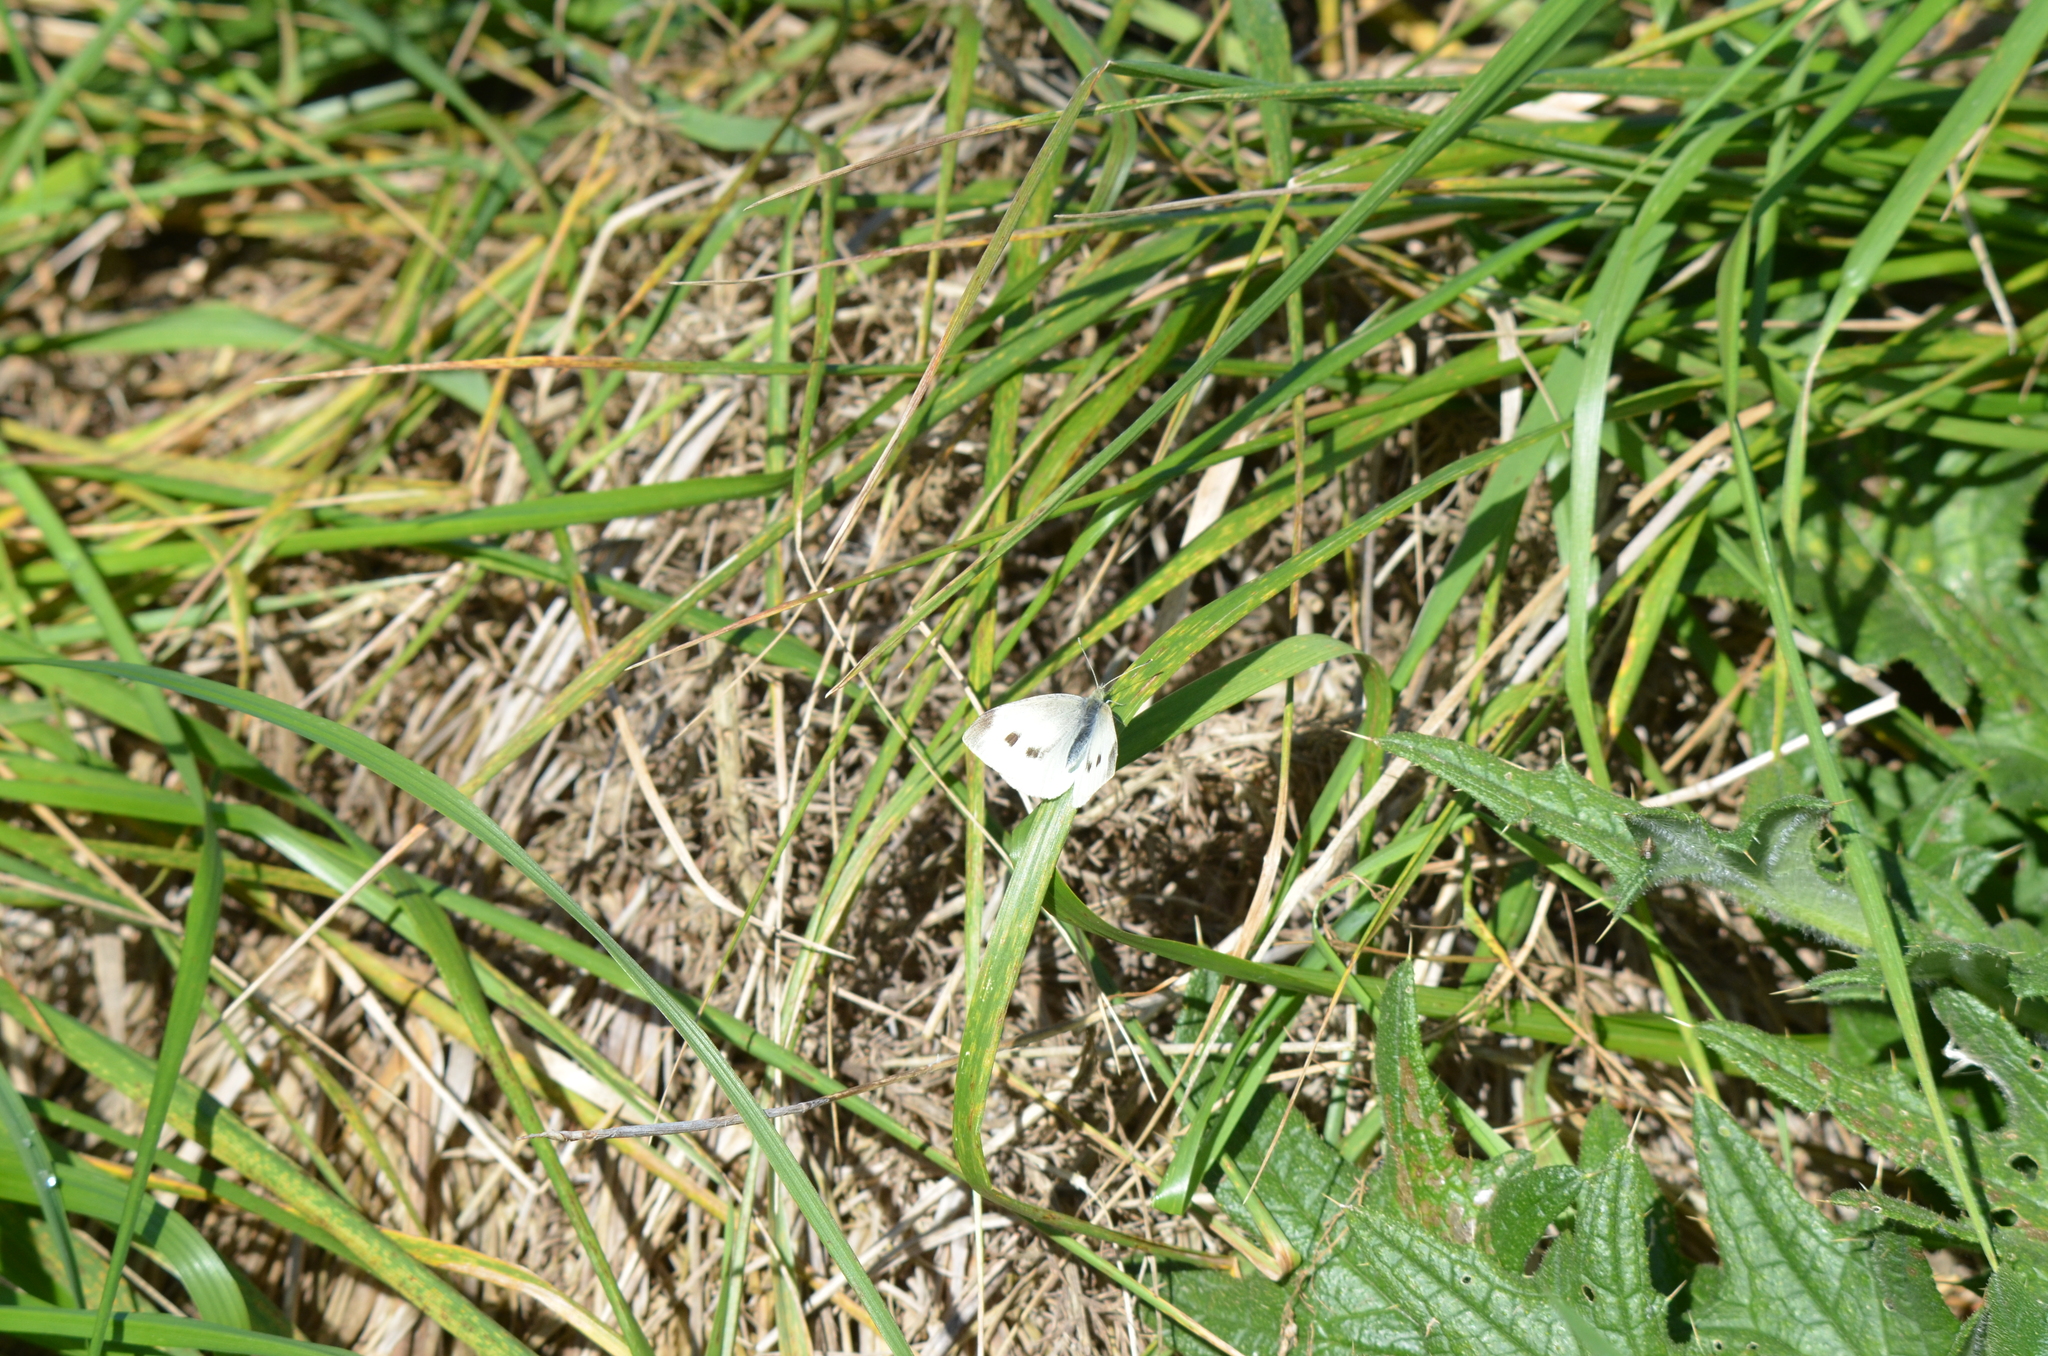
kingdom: Animalia
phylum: Arthropoda
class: Insecta
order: Lepidoptera
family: Pieridae
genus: Pieris
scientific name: Pieris rapae
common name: Small white
